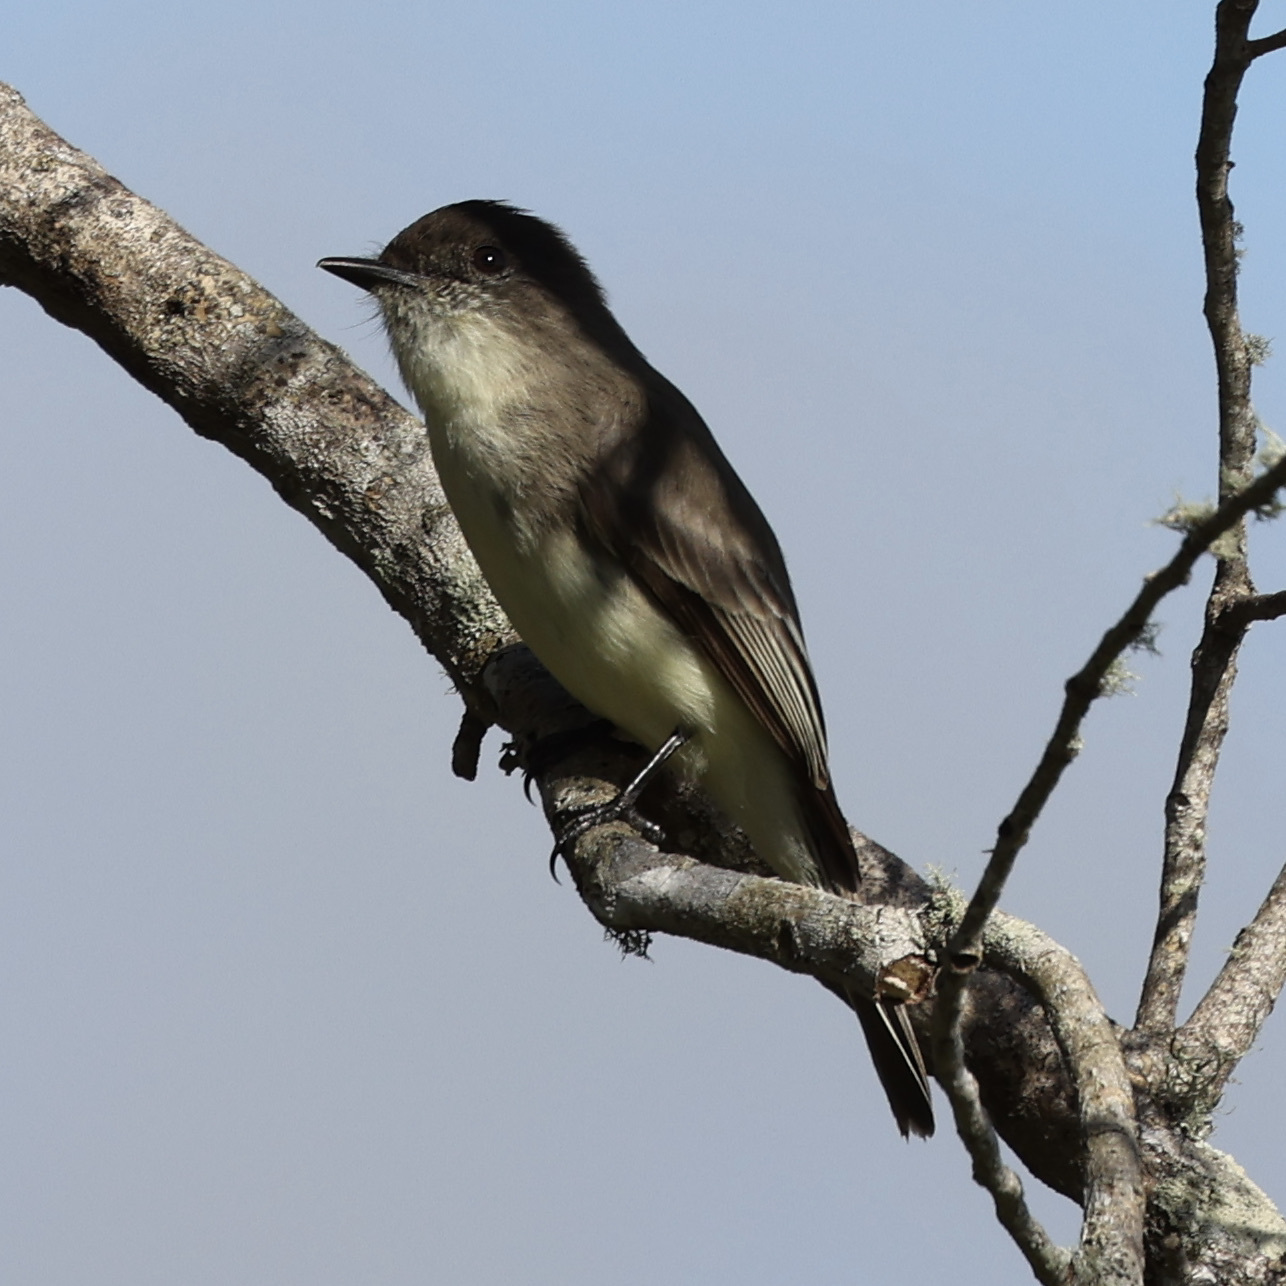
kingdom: Animalia
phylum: Chordata
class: Aves
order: Passeriformes
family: Tyrannidae
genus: Sayornis
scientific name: Sayornis phoebe
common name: Eastern phoebe
